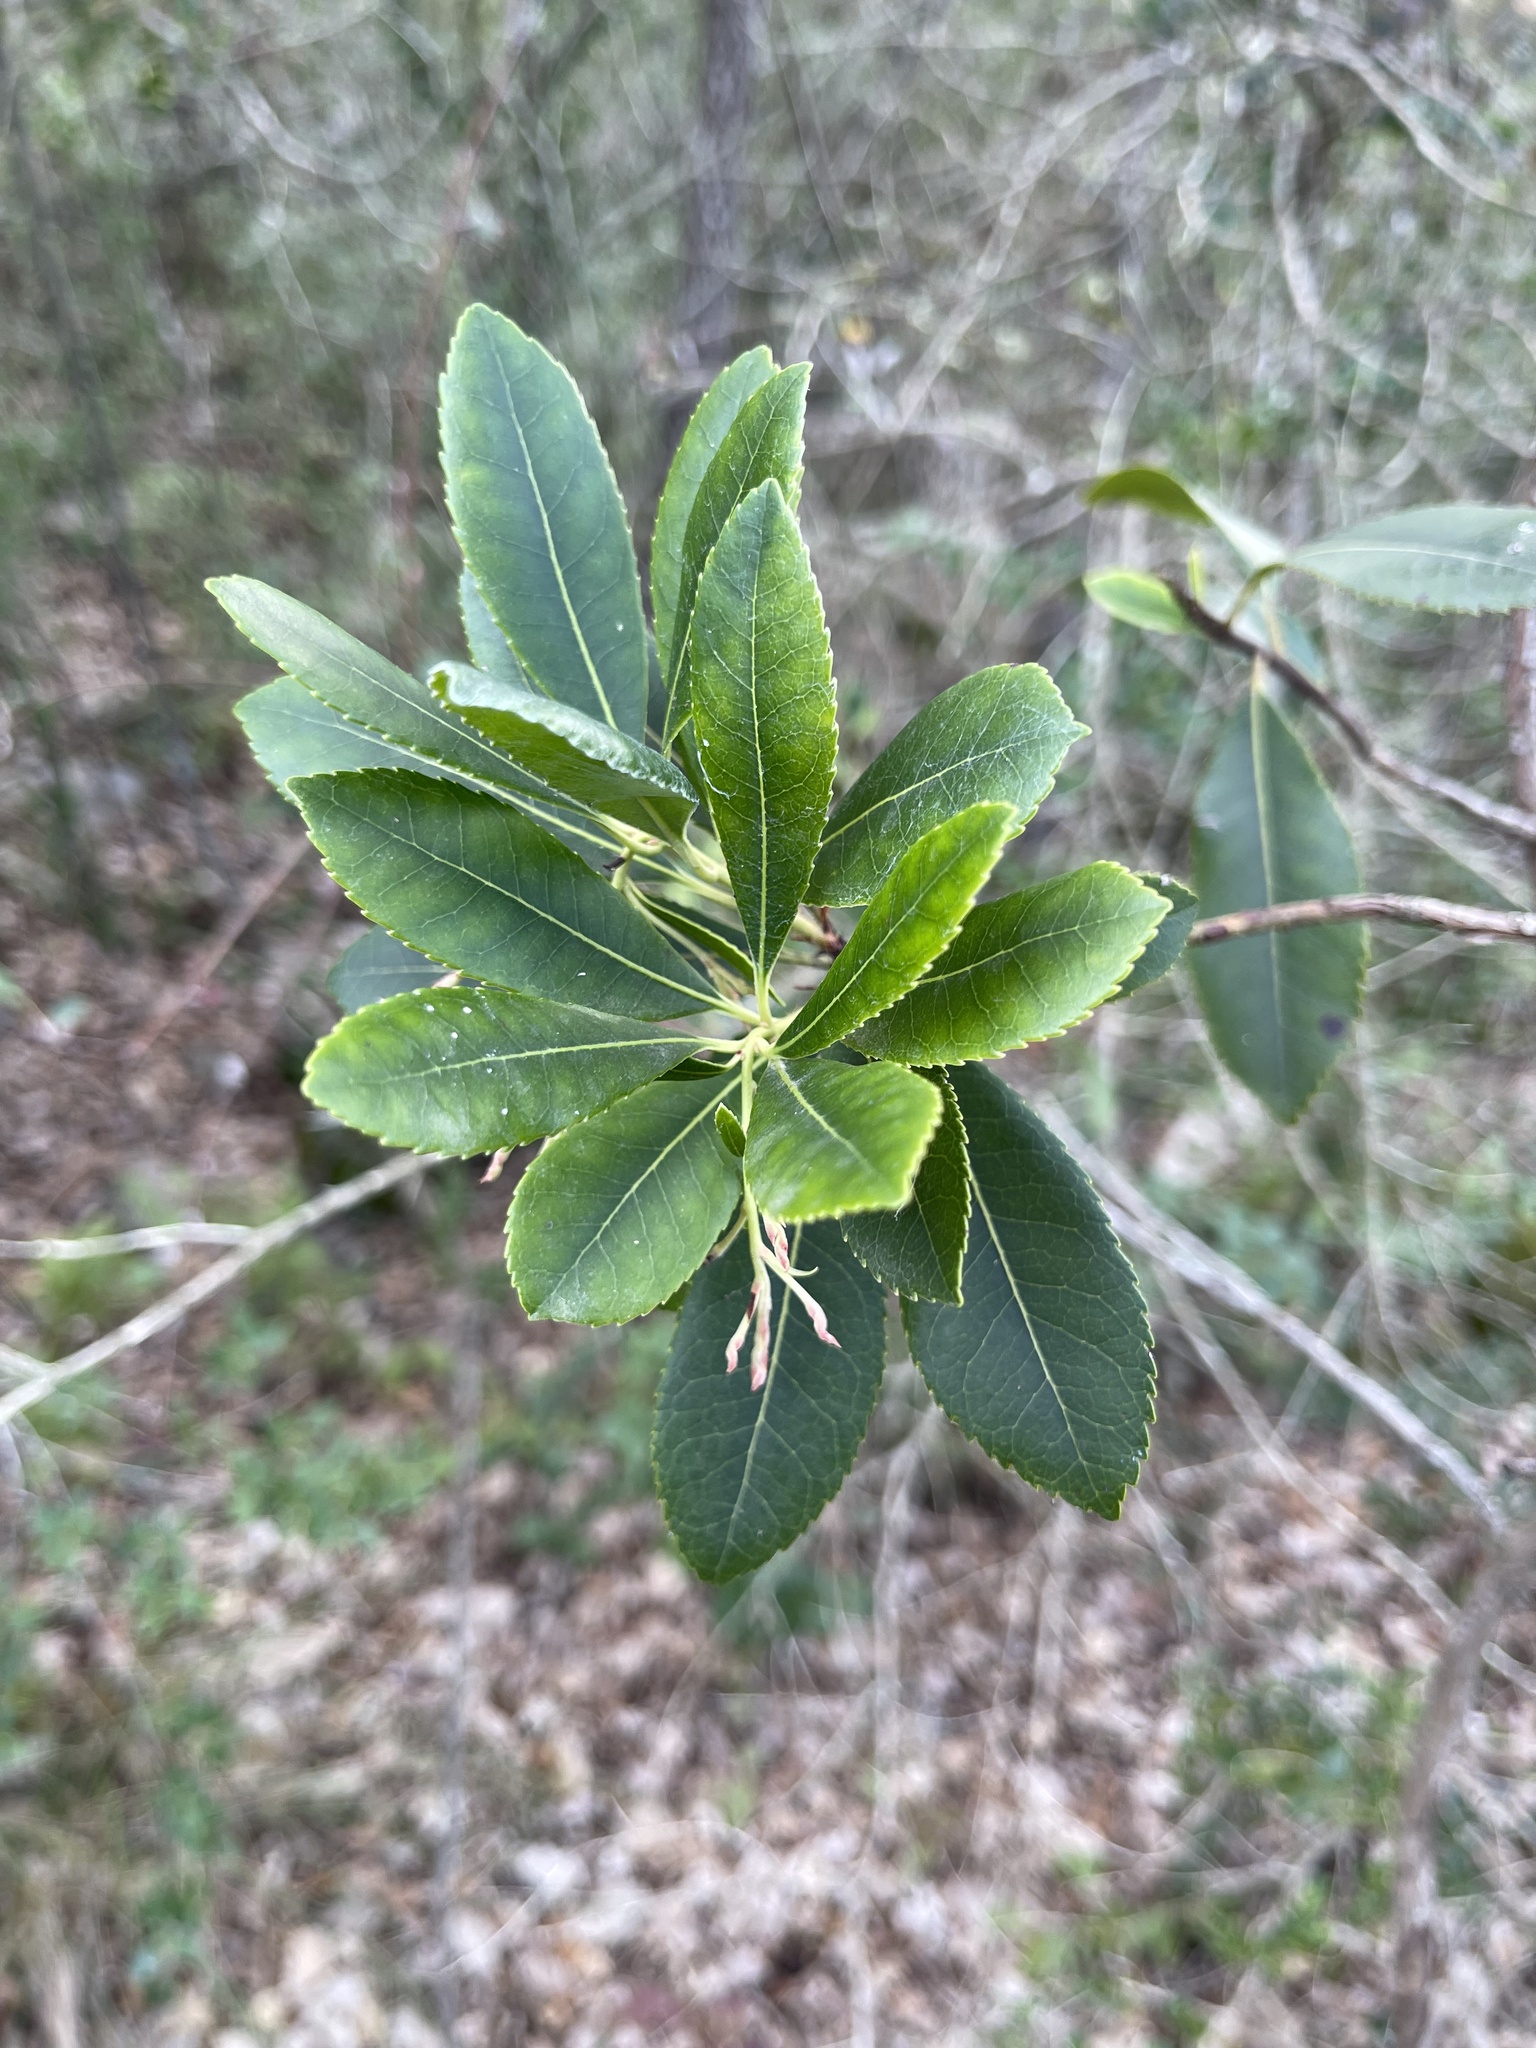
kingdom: Plantae
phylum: Tracheophyta
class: Magnoliopsida
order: Ericales
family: Ericaceae
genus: Arbutus
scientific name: Arbutus unedo
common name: Strawberry-tree
